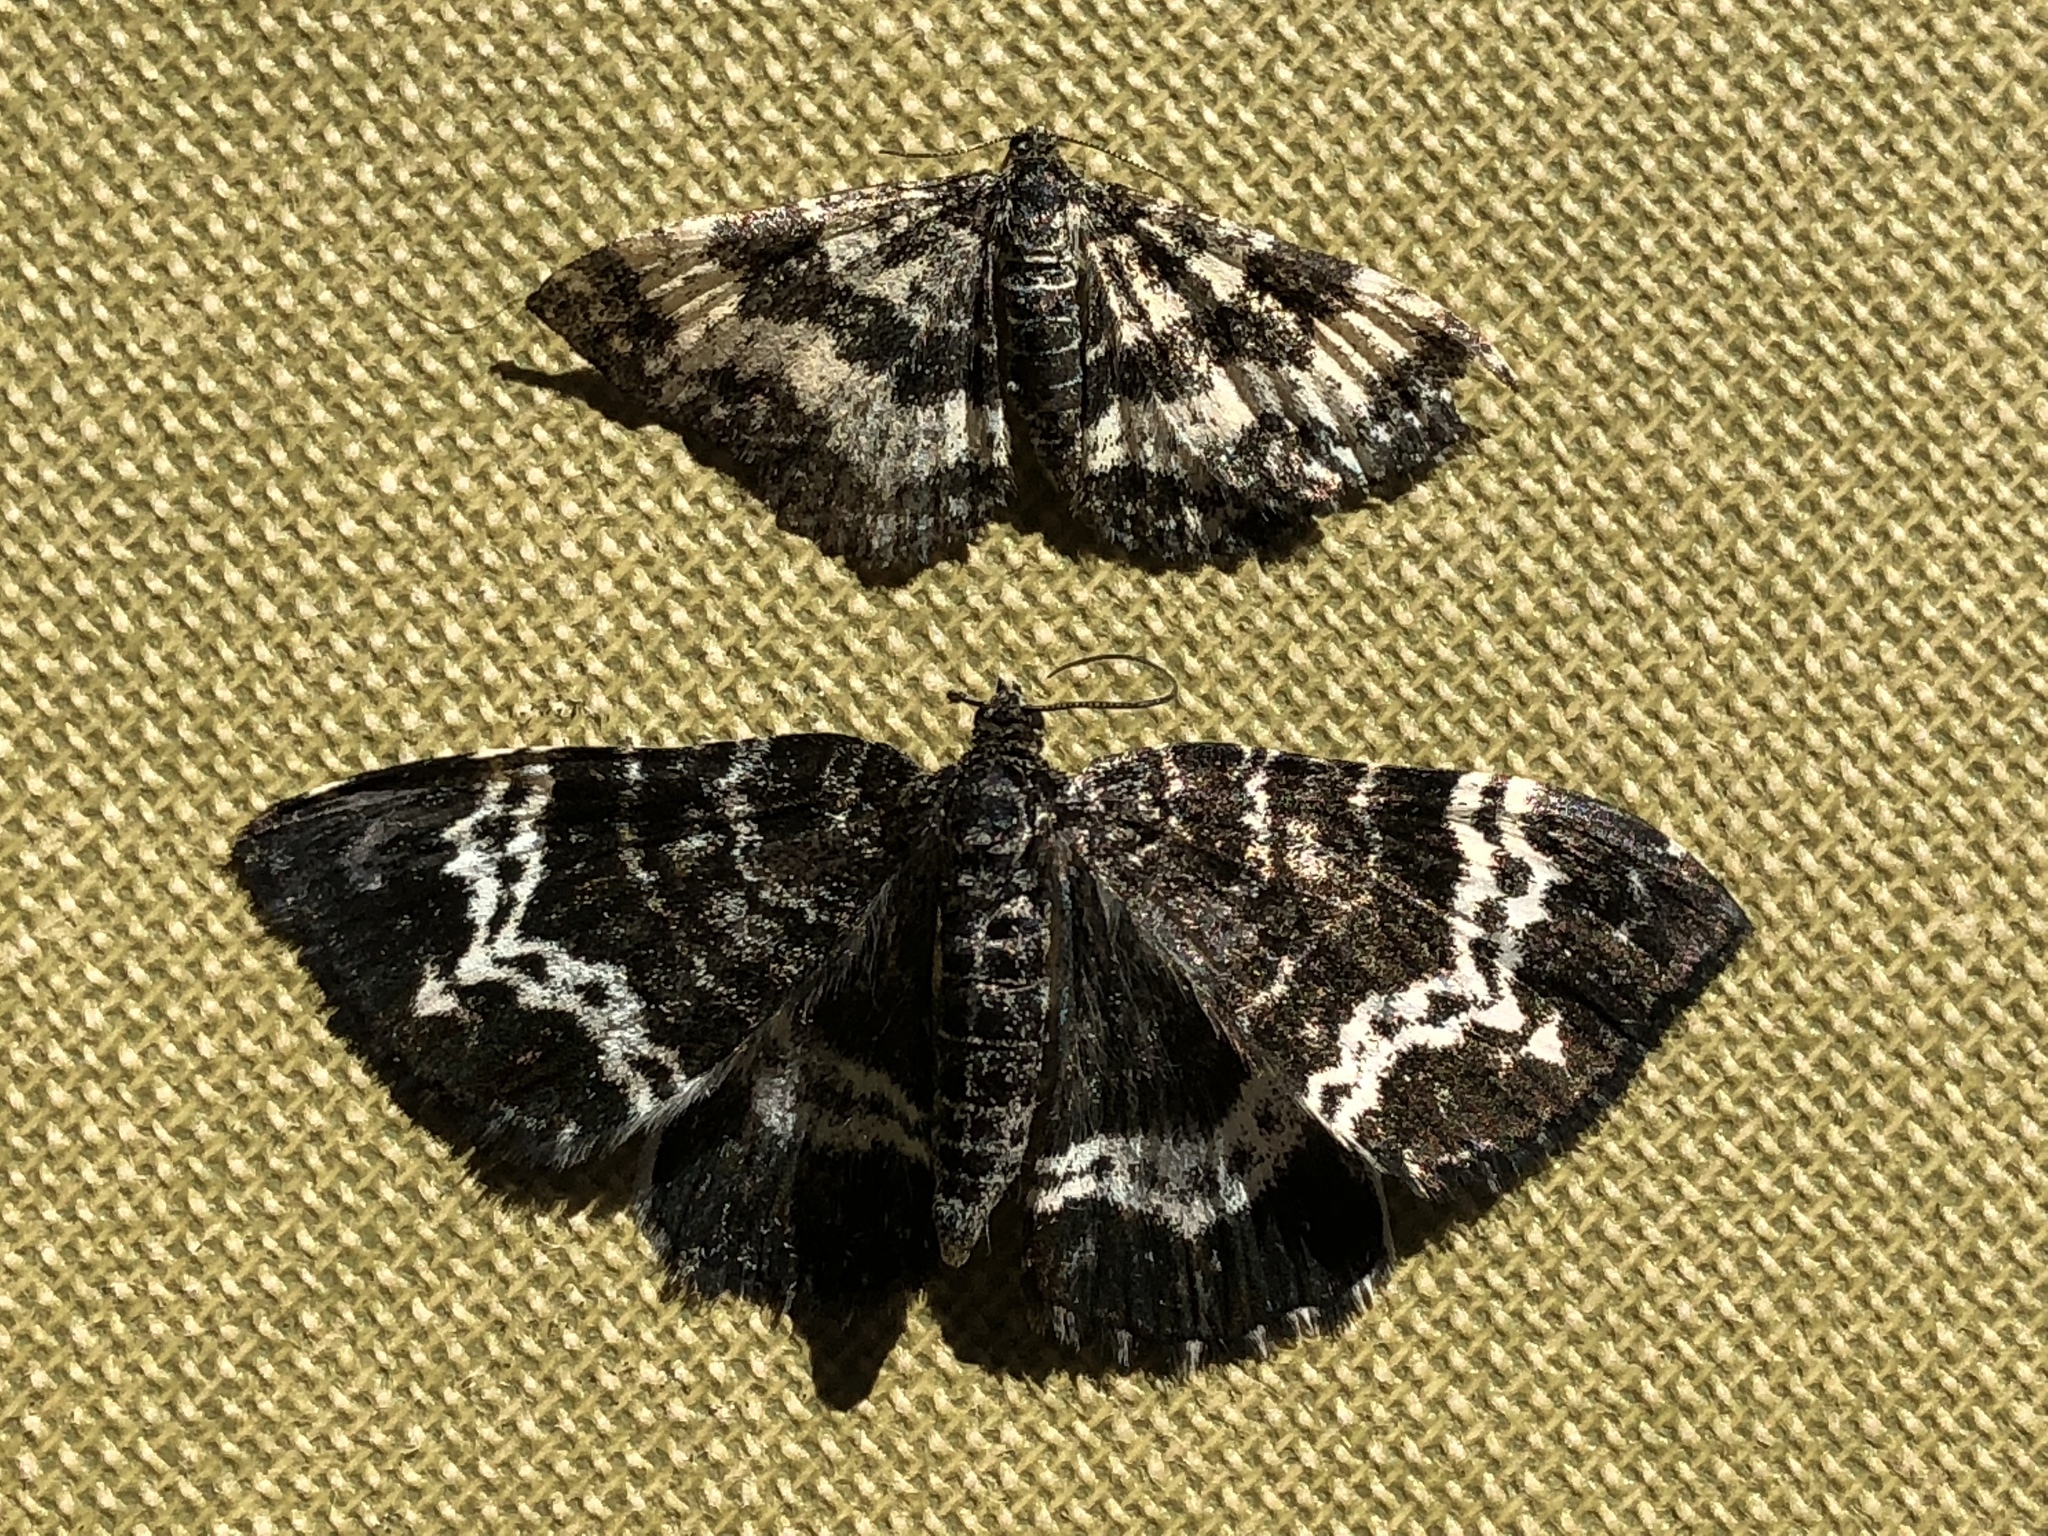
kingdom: Animalia
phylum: Arthropoda
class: Insecta
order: Lepidoptera
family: Geometridae
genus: Epirrhoe
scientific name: Epirrhoe tristata
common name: Small argent & sable
